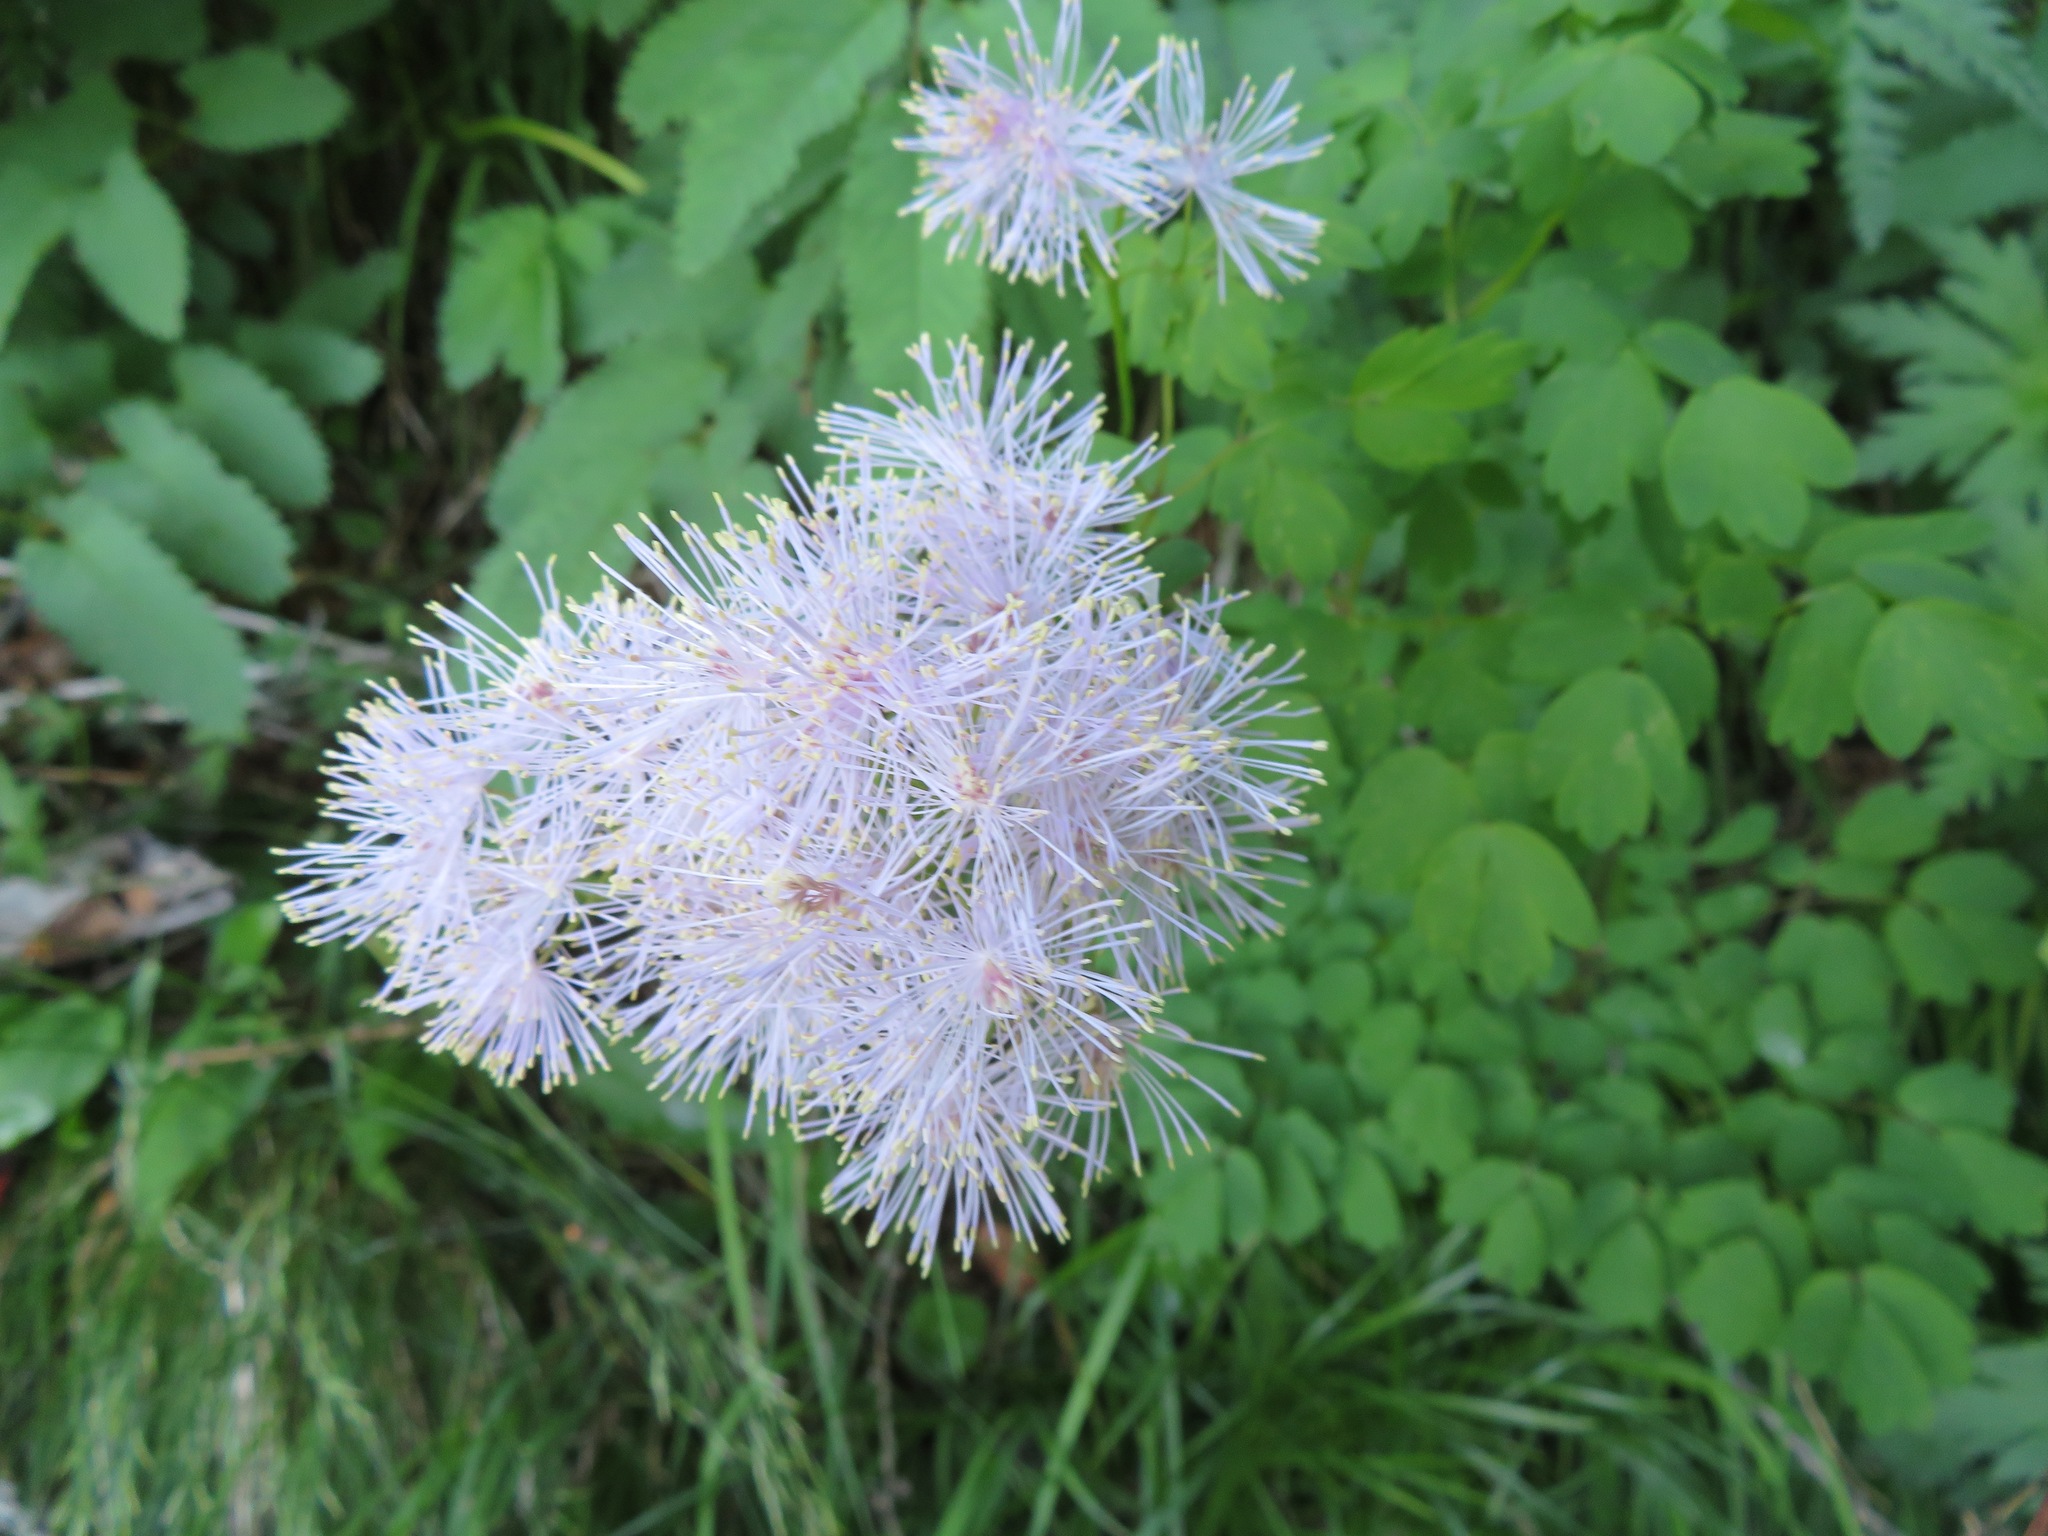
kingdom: Plantae
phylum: Tracheophyta
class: Magnoliopsida
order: Ranunculales
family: Ranunculaceae
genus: Thalictrum
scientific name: Thalictrum aquilegiifolium
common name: French meadow-rue
